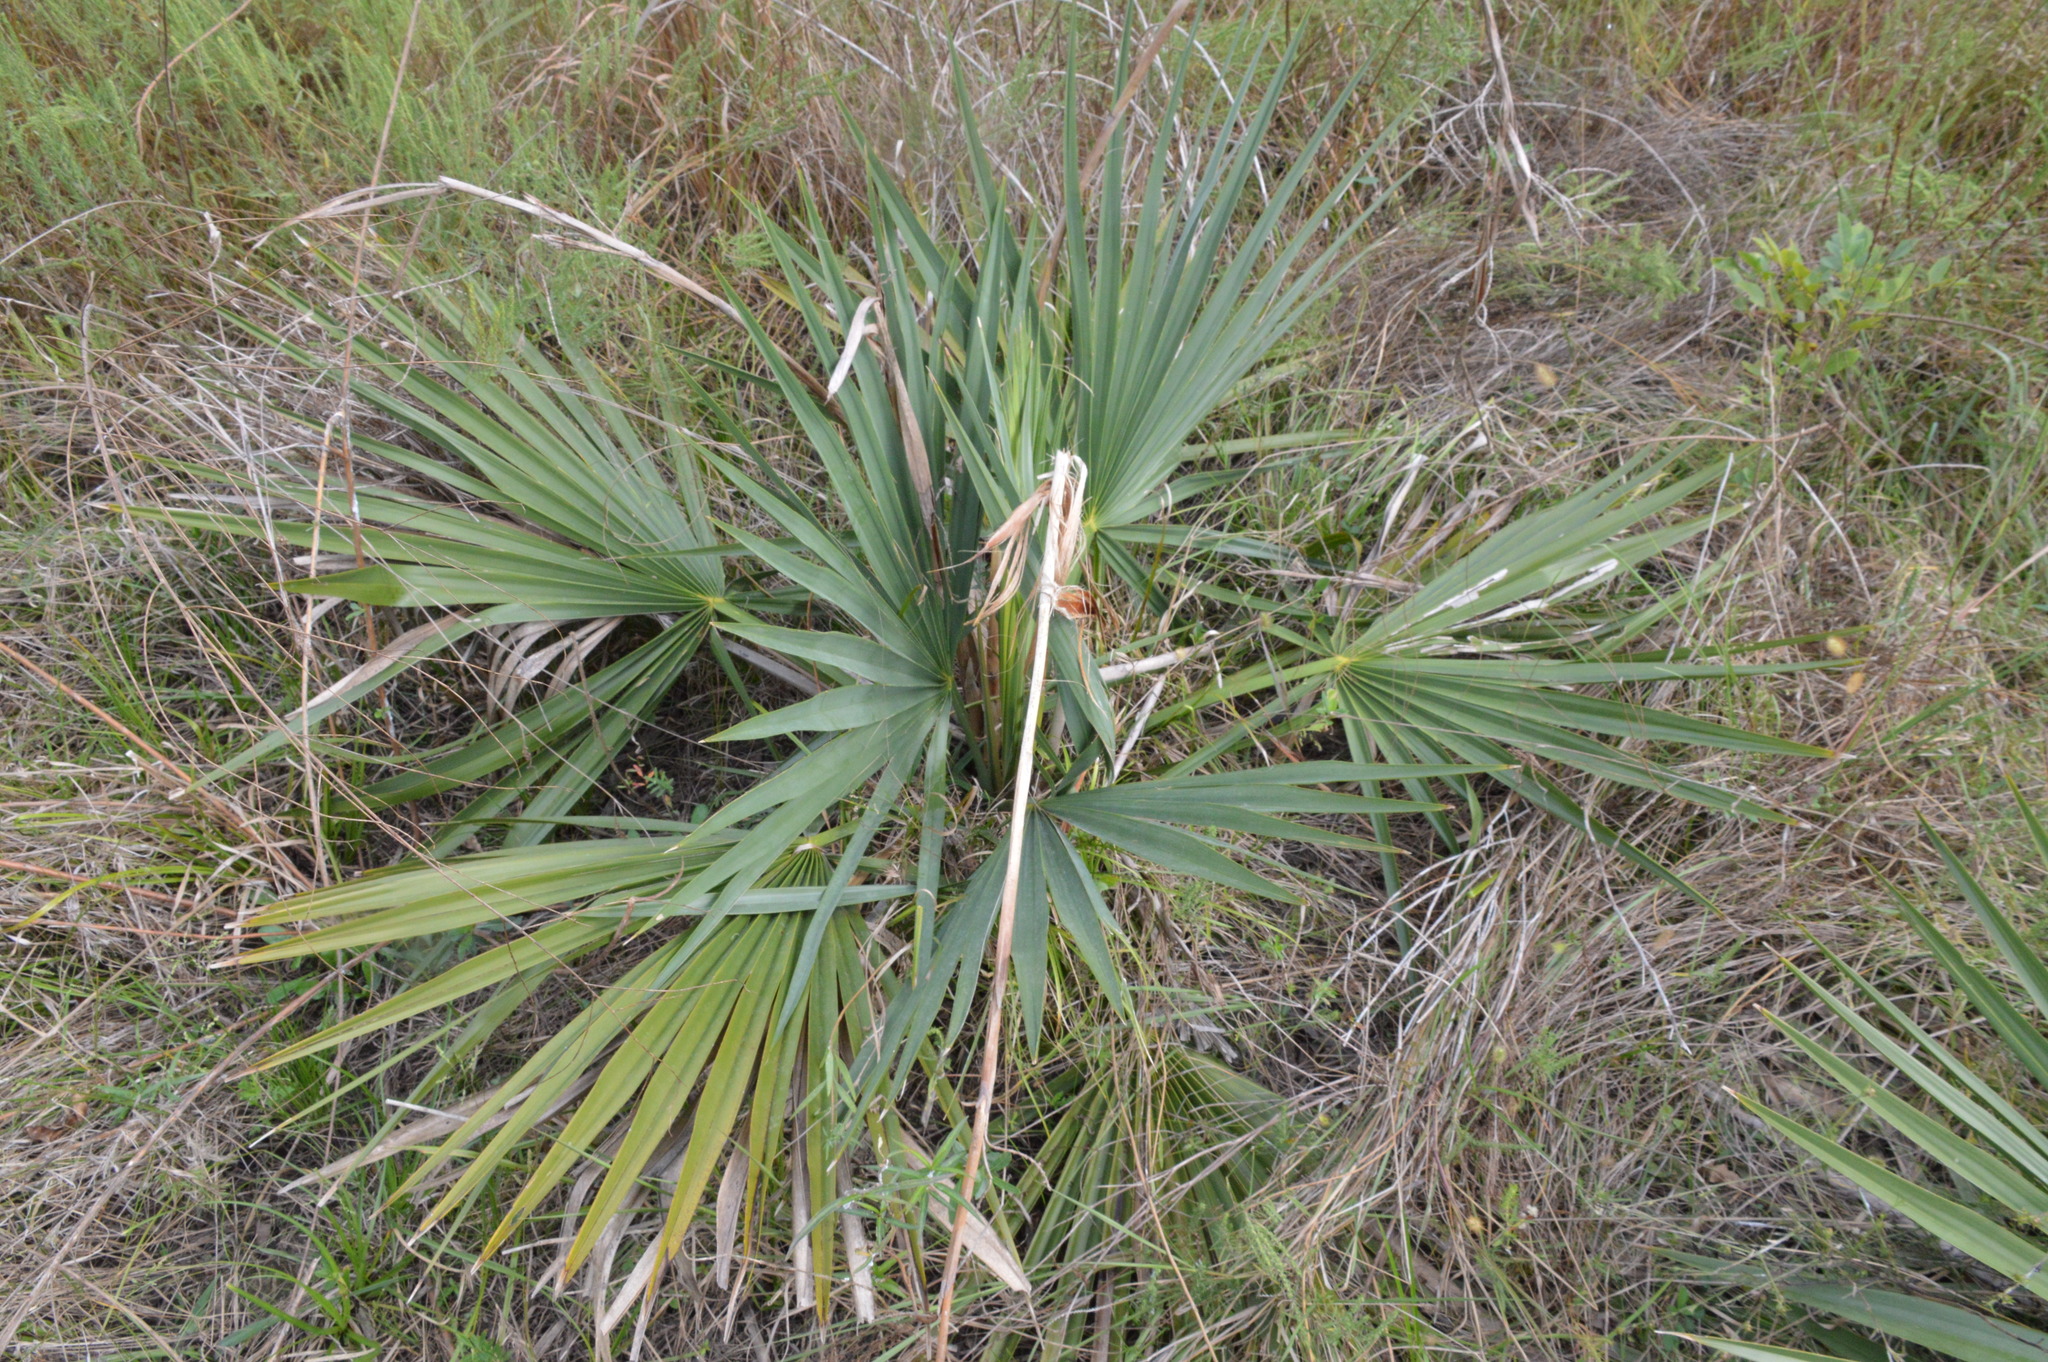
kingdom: Plantae
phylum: Tracheophyta
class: Liliopsida
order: Arecales
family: Arecaceae
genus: Sabal
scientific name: Sabal minor
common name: Dwarf palmetto
